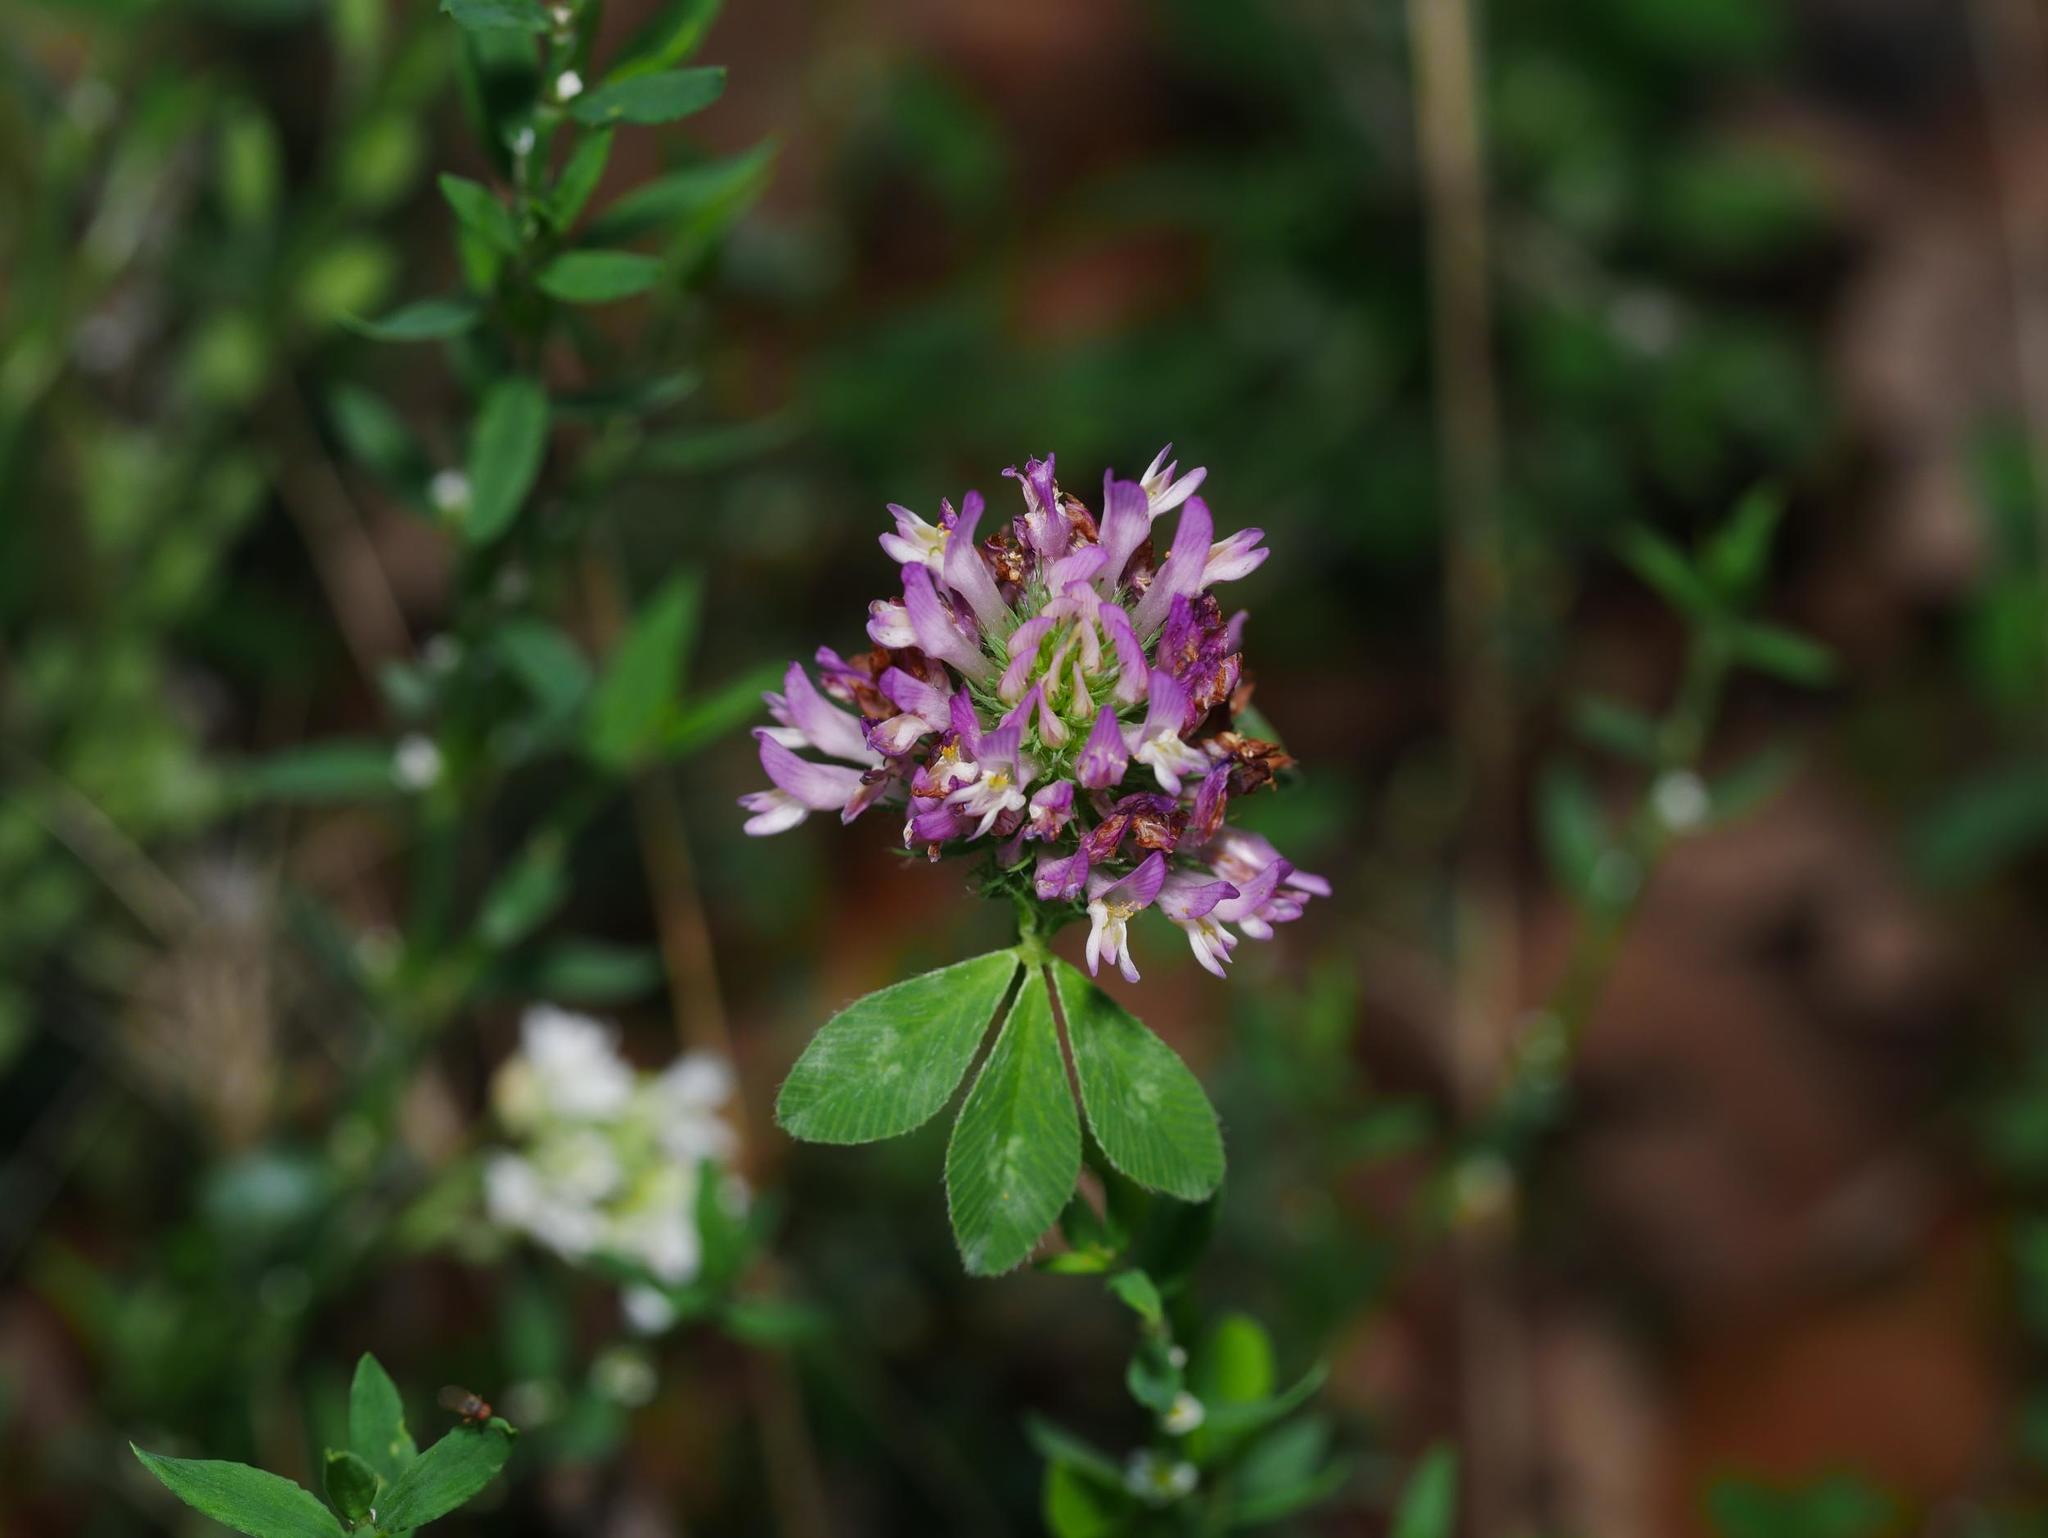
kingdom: Plantae
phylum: Tracheophyta
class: Magnoliopsida
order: Fabales
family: Fabaceae
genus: Medicago
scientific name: Medicago sativa
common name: Alfalfa
